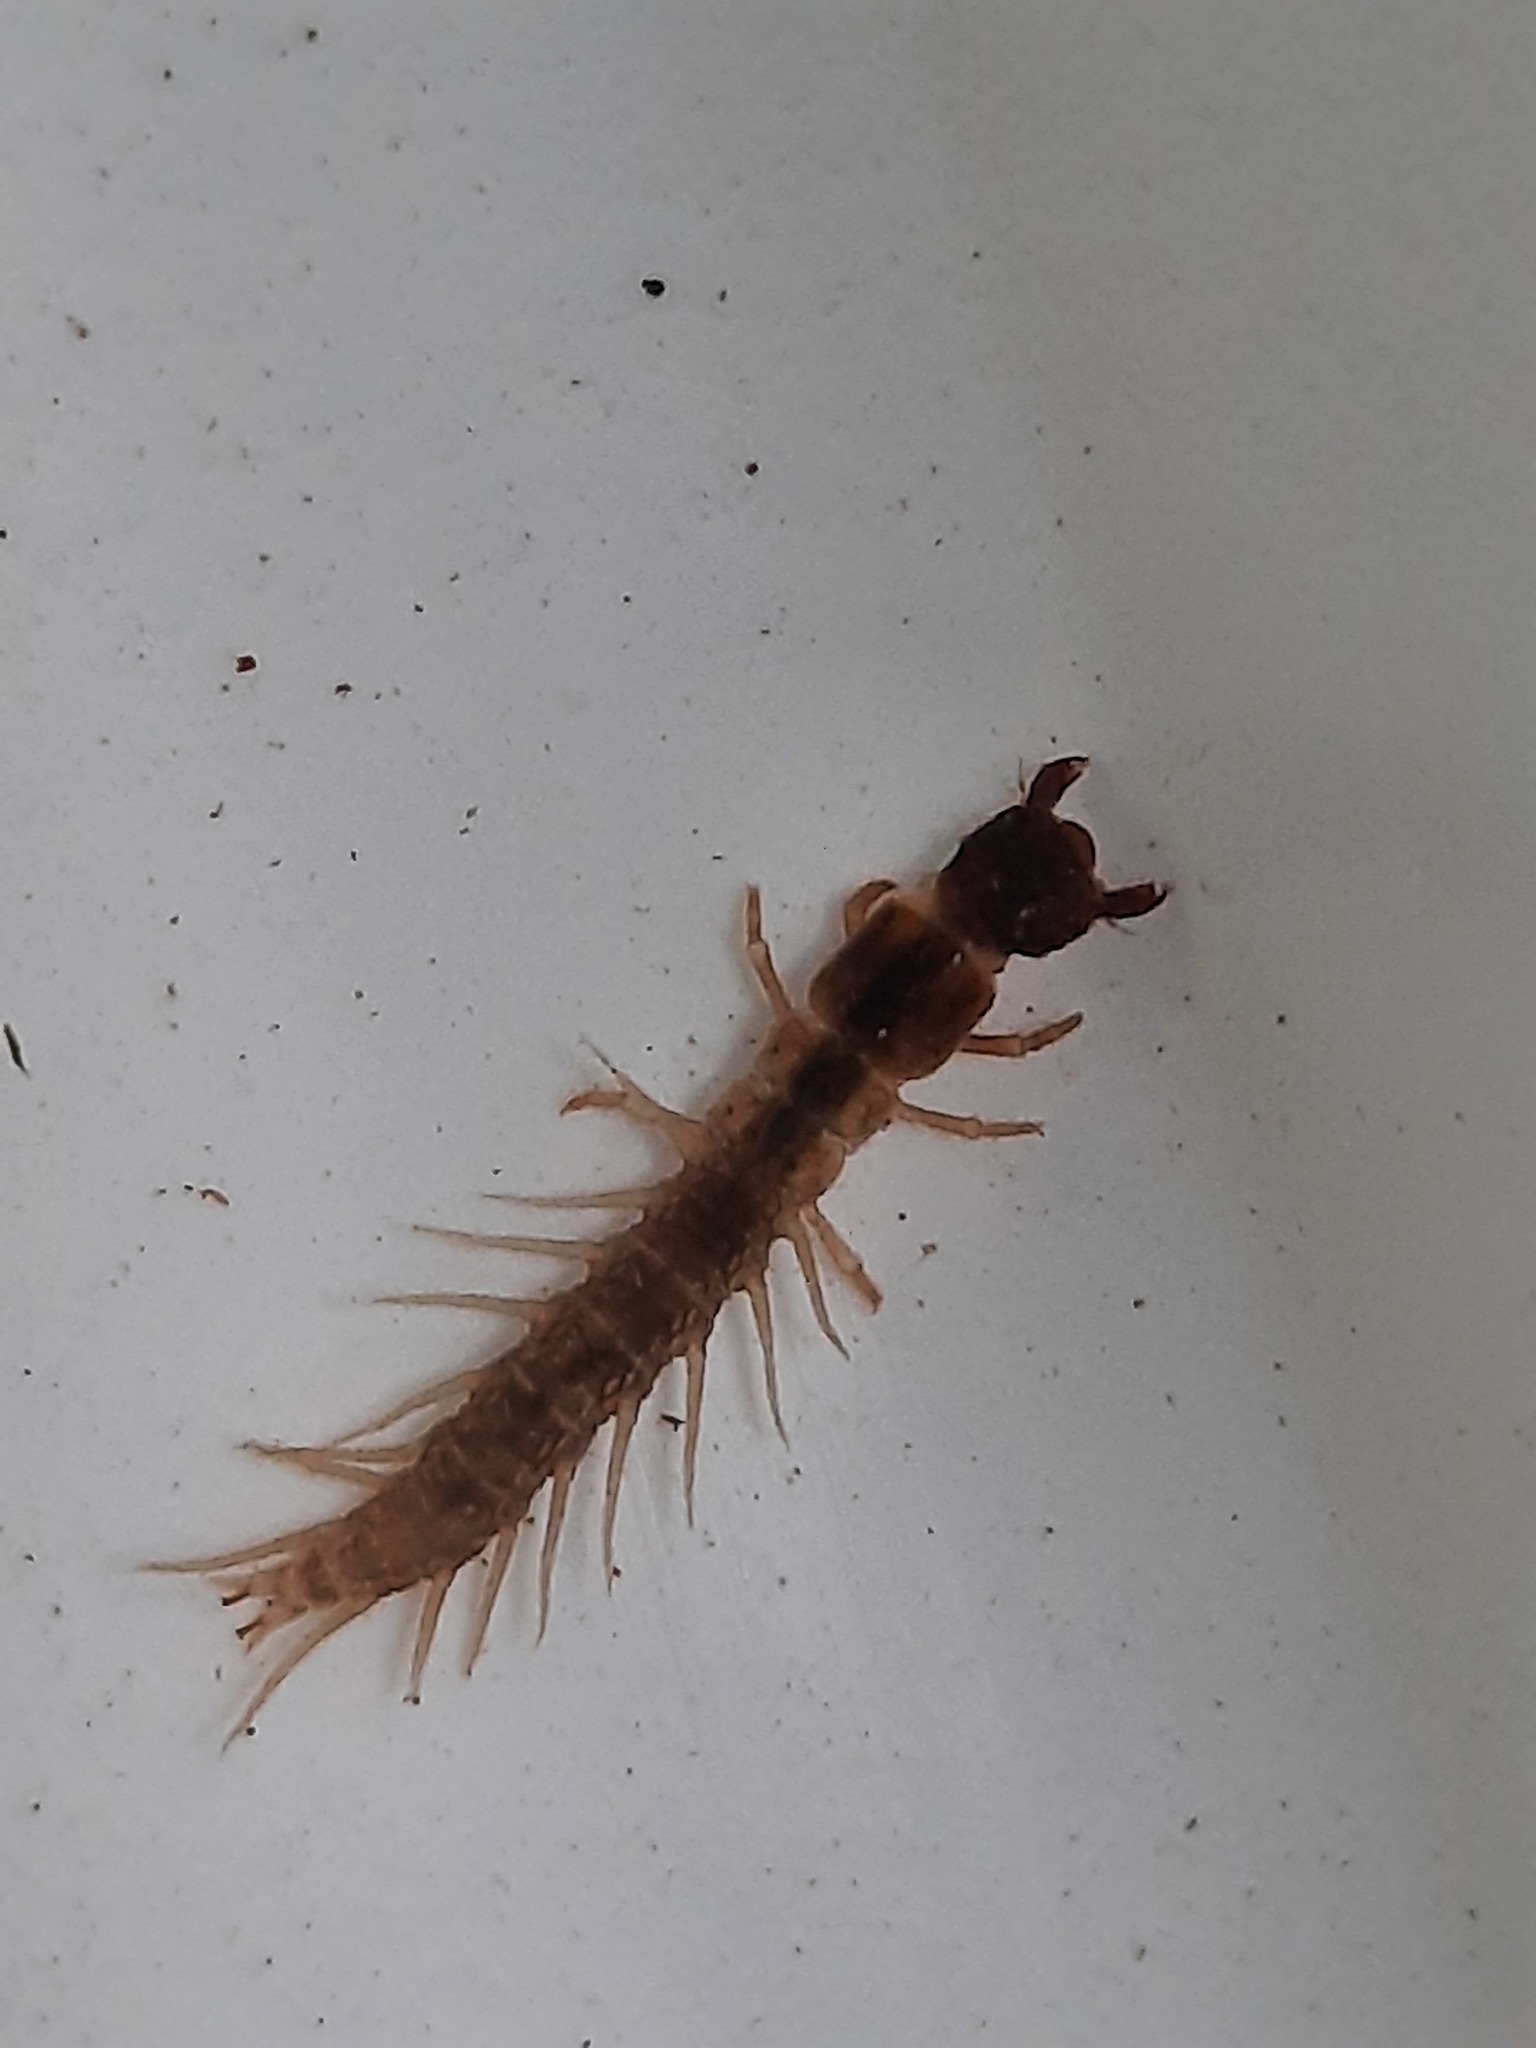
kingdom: Animalia
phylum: Arthropoda
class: Insecta
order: Megaloptera
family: Corydalidae
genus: Archichauliodes
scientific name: Archichauliodes diversus
